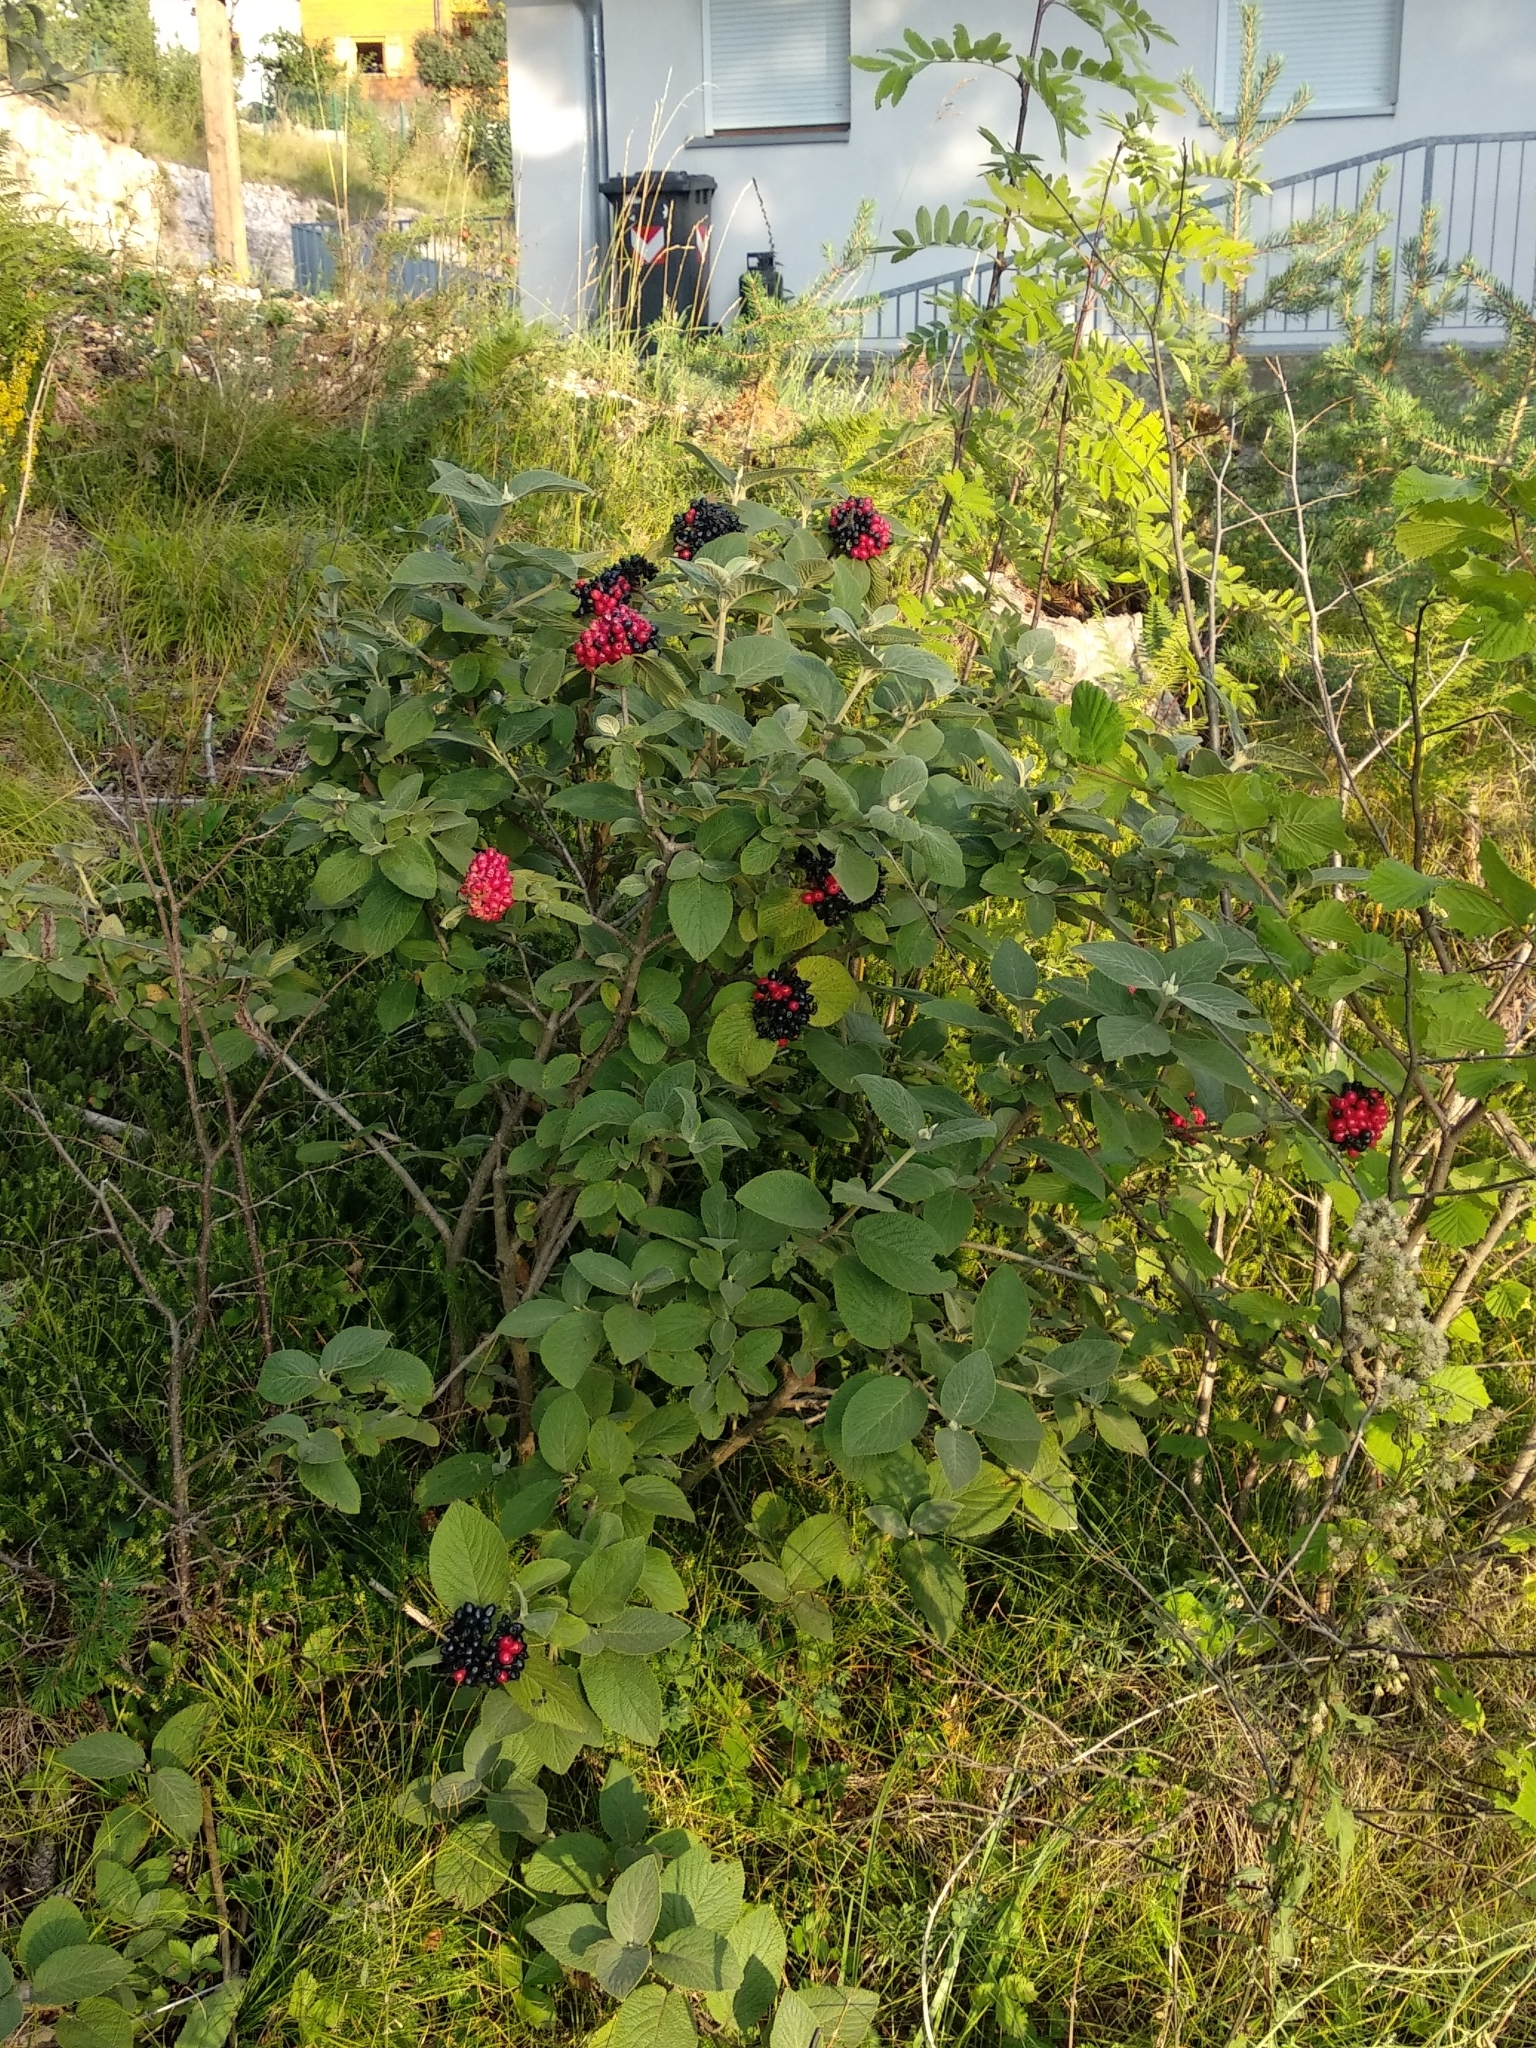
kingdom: Plantae
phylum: Tracheophyta
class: Magnoliopsida
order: Dipsacales
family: Viburnaceae
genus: Viburnum
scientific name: Viburnum lantana
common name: Wayfaring tree
